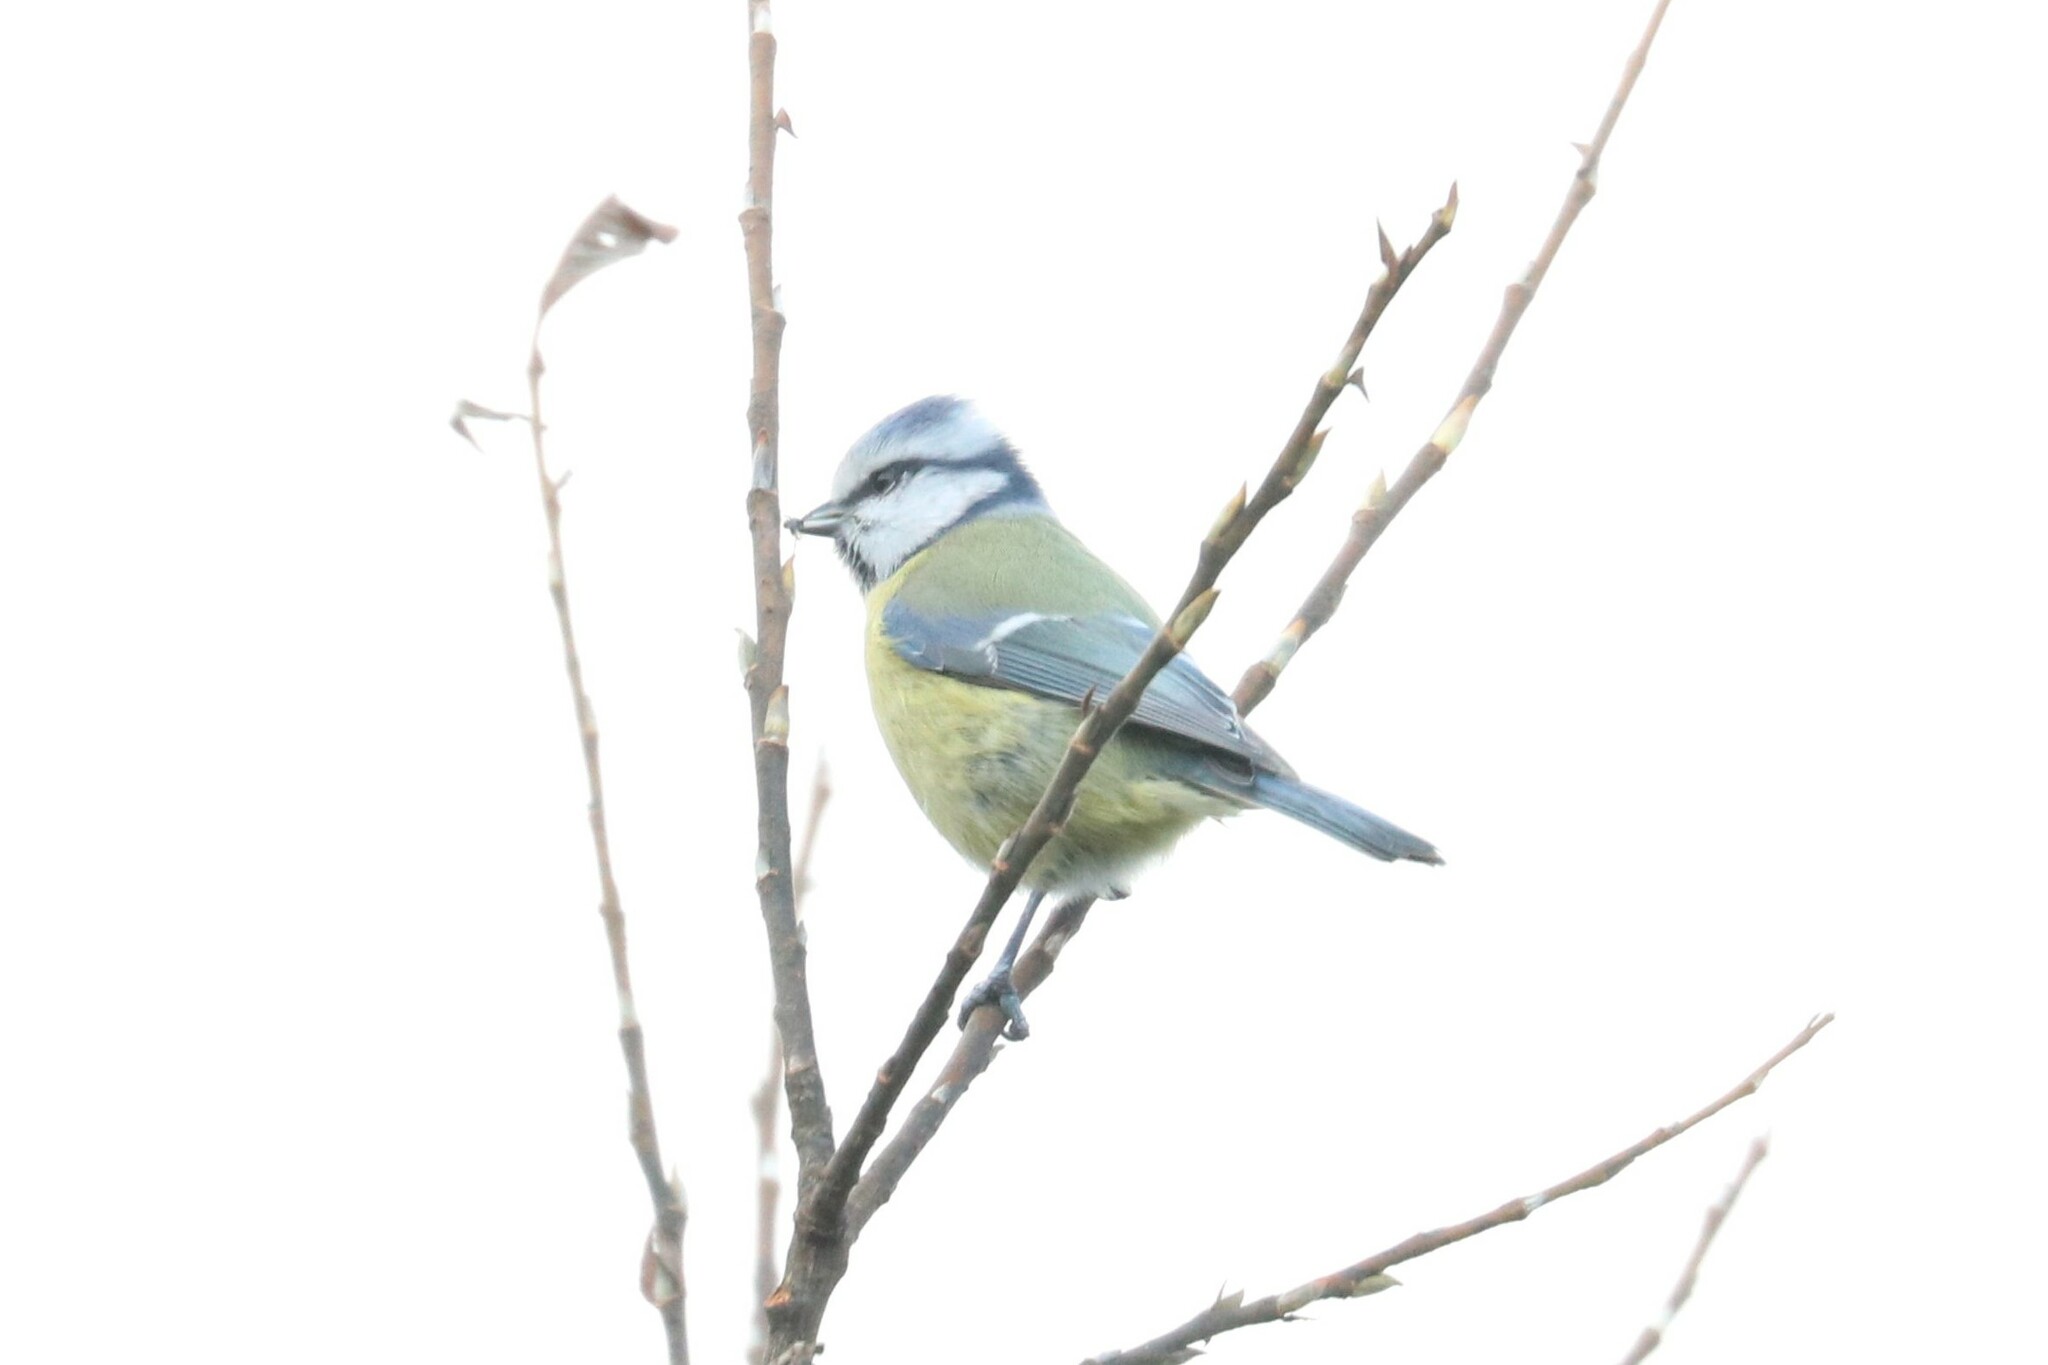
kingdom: Animalia
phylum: Chordata
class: Aves
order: Passeriformes
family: Paridae
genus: Cyanistes
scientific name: Cyanistes caeruleus
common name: Eurasian blue tit
